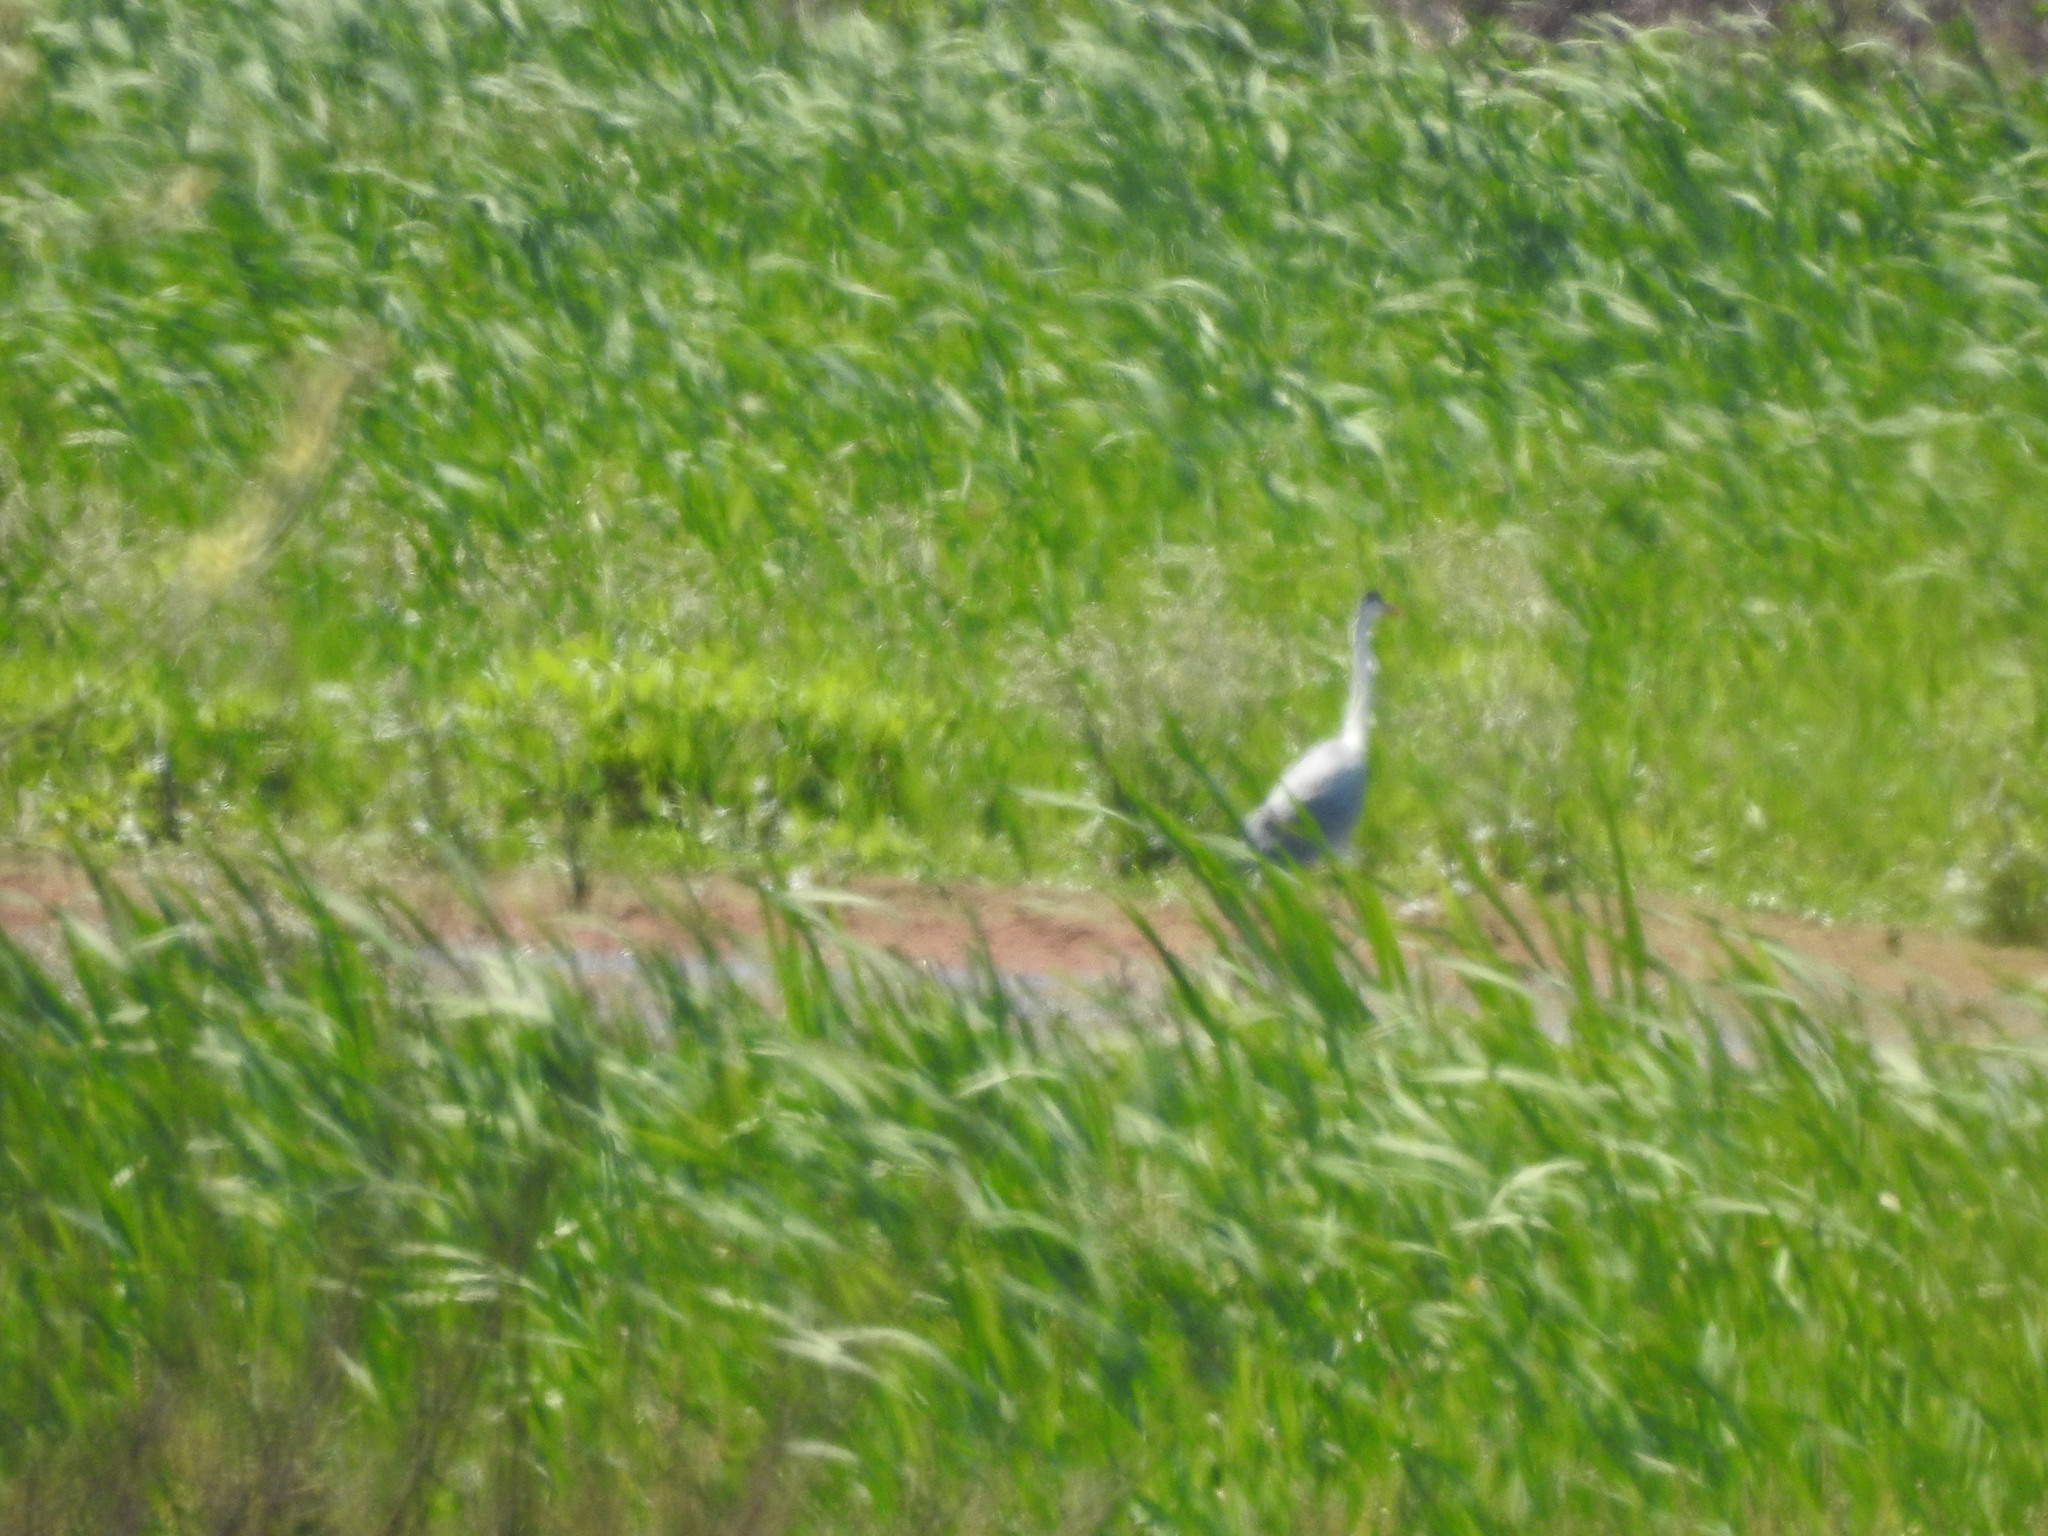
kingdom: Animalia
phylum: Chordata
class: Aves
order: Pelecaniformes
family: Ardeidae
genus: Ardea
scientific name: Ardea cocoi
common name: Cocoi heron
